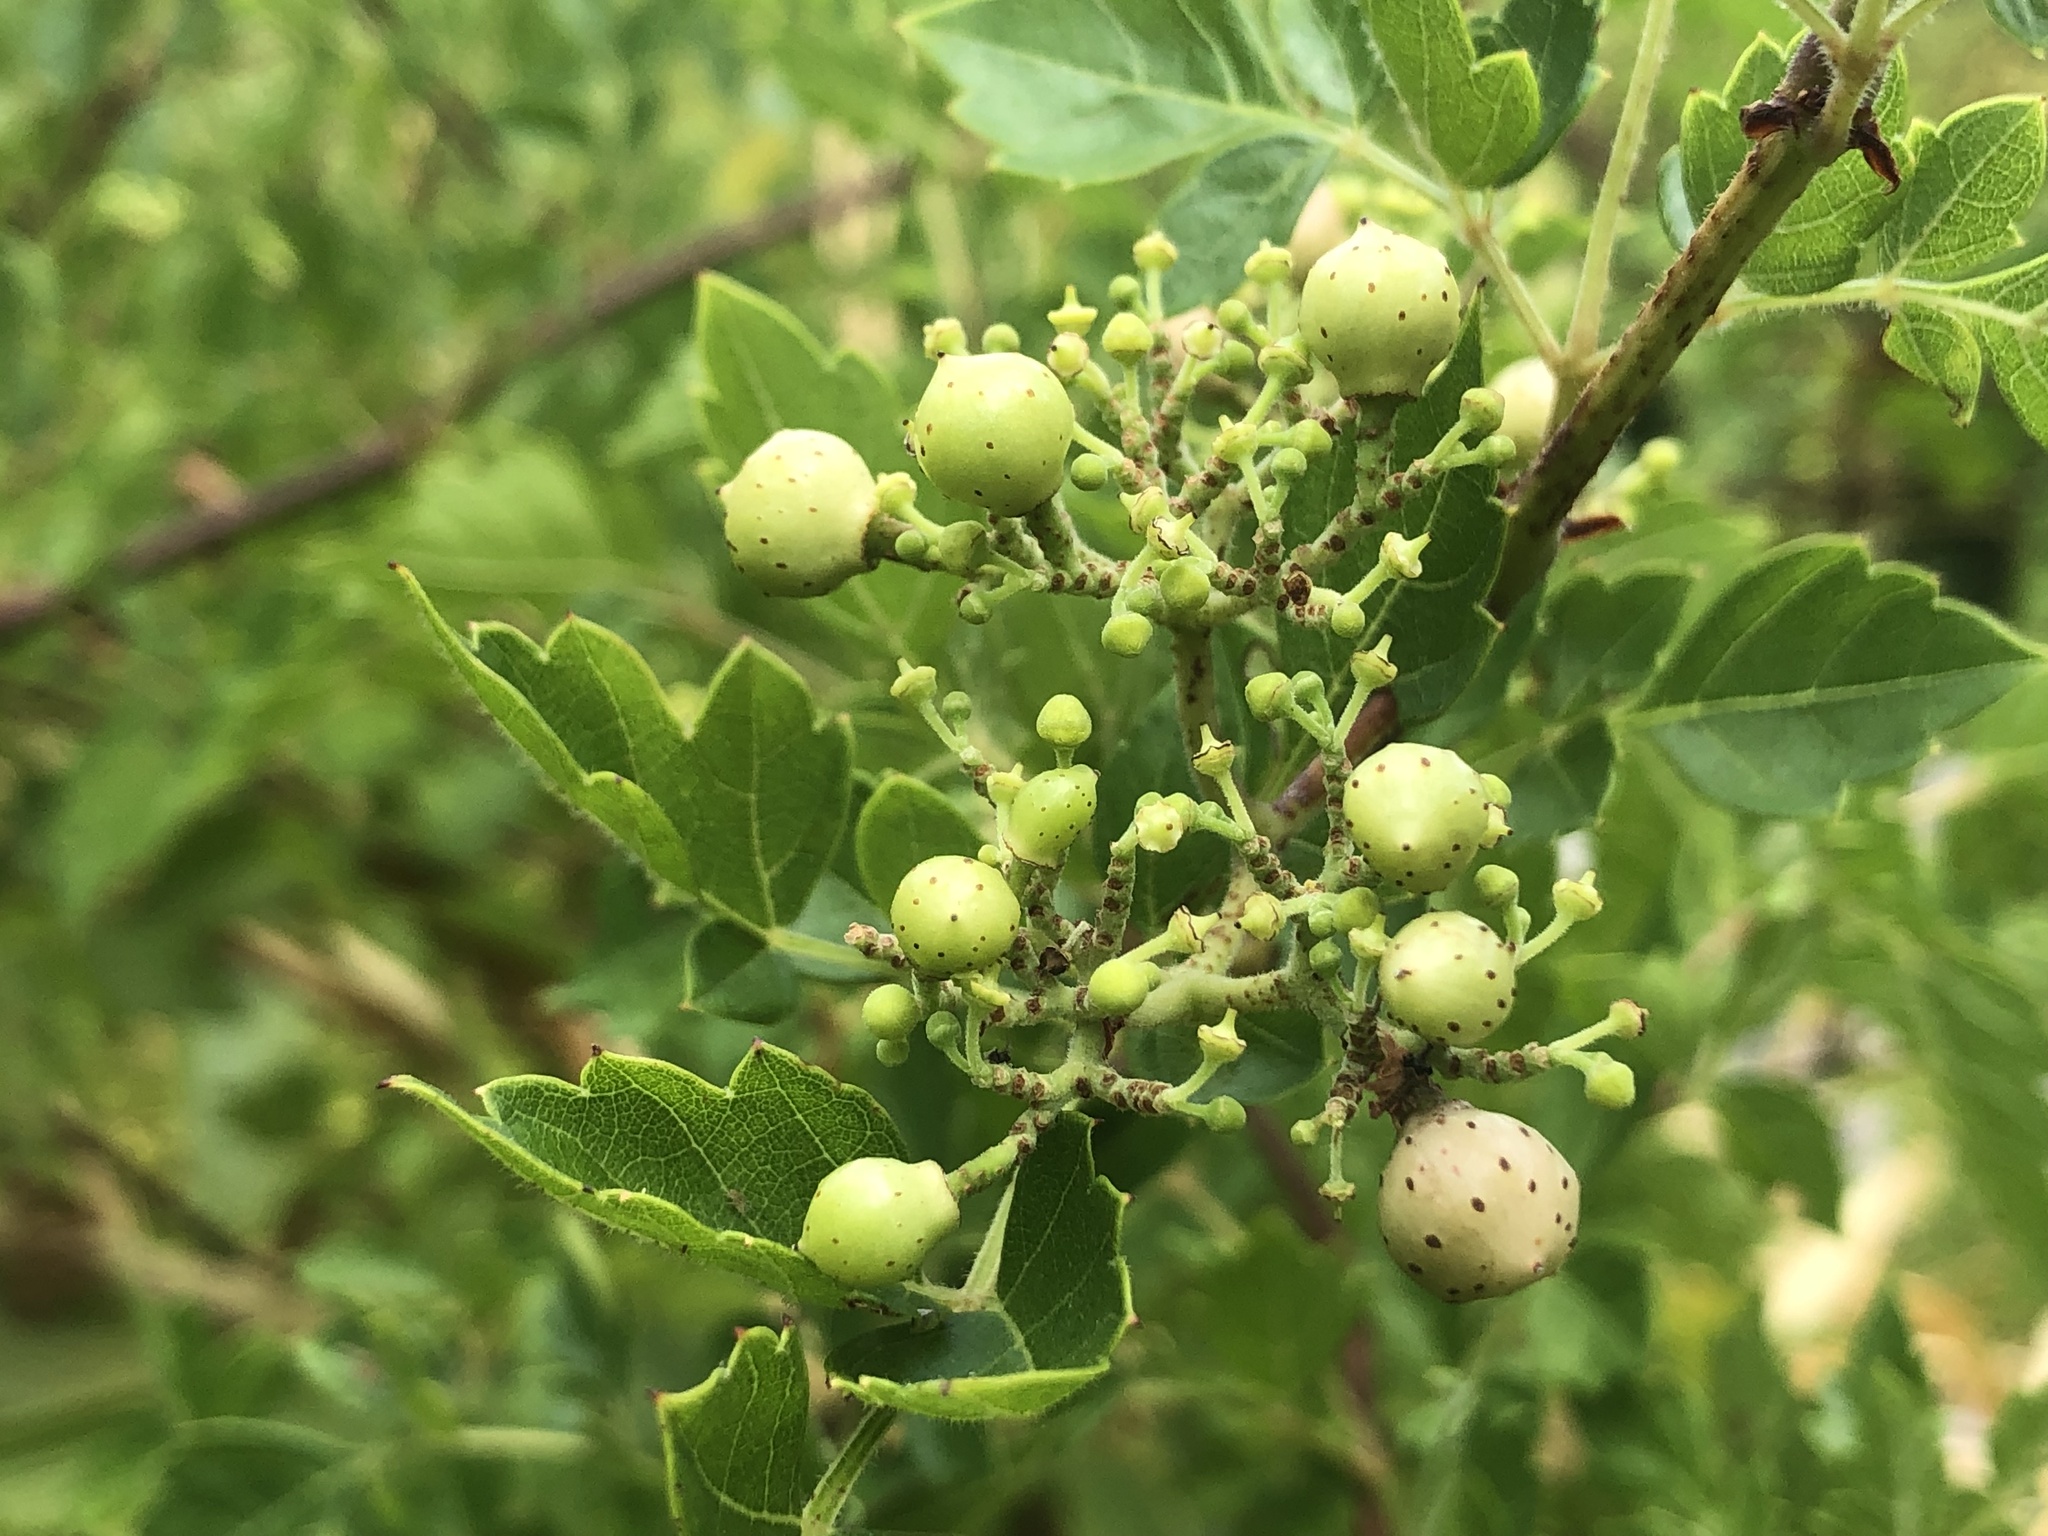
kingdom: Plantae
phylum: Tracheophyta
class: Magnoliopsida
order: Vitales
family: Vitaceae
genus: Nekemias
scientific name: Nekemias arborea
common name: Peppervine
